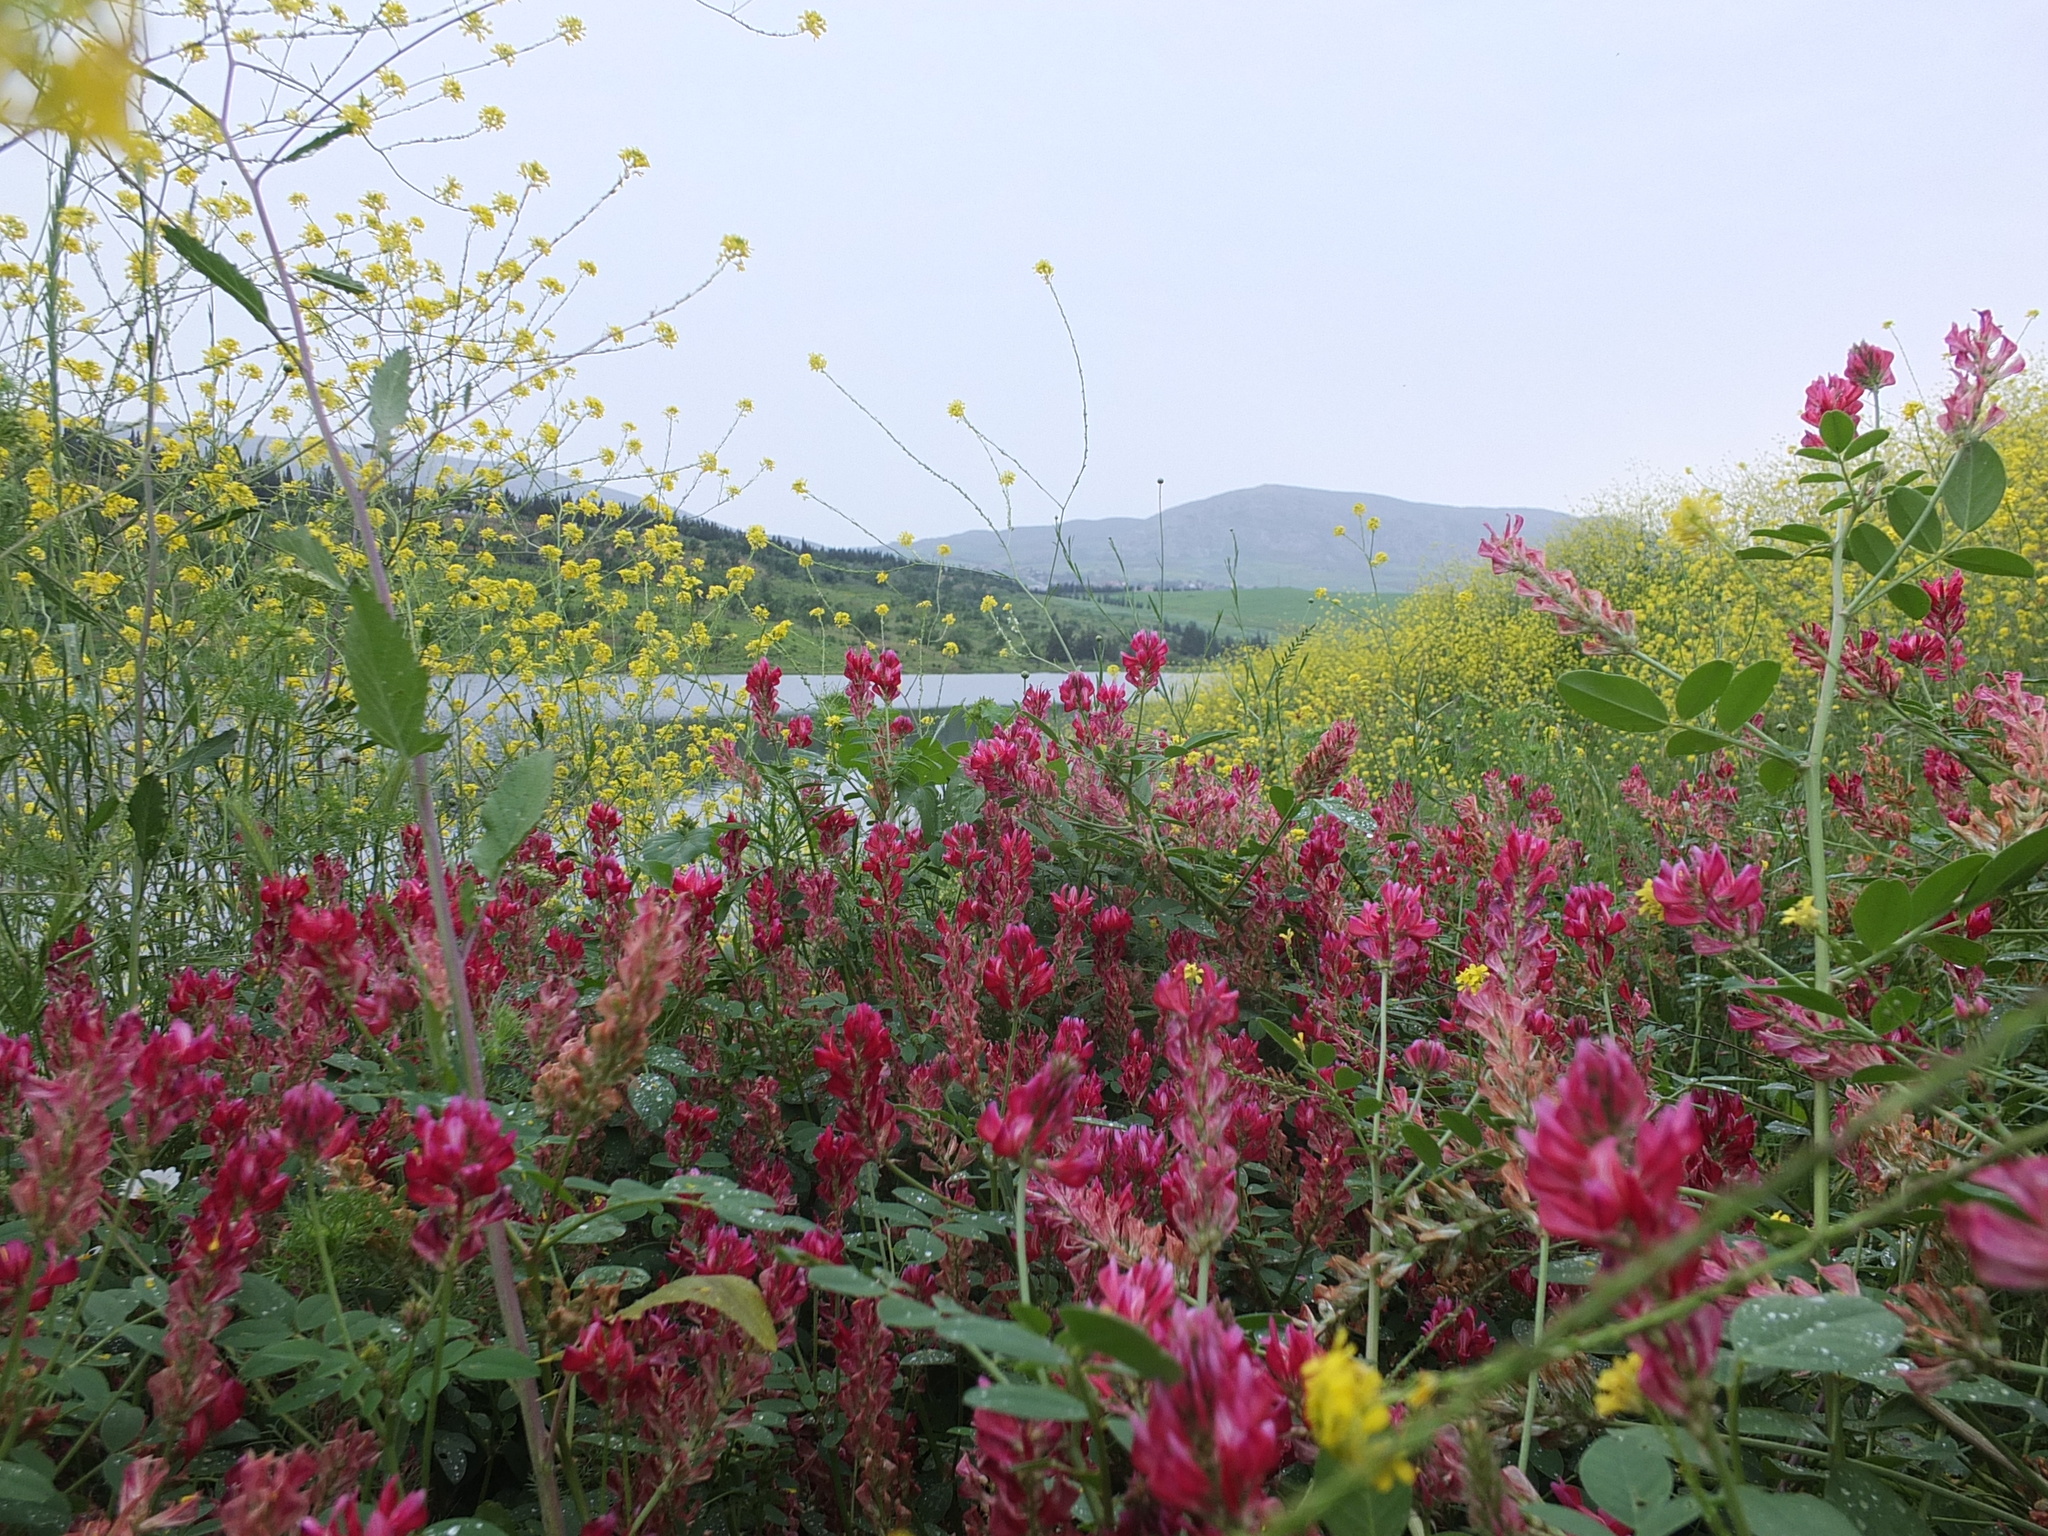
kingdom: Plantae
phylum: Tracheophyta
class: Magnoliopsida
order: Fabales
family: Fabaceae
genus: Sulla
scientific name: Sulla coronaria
